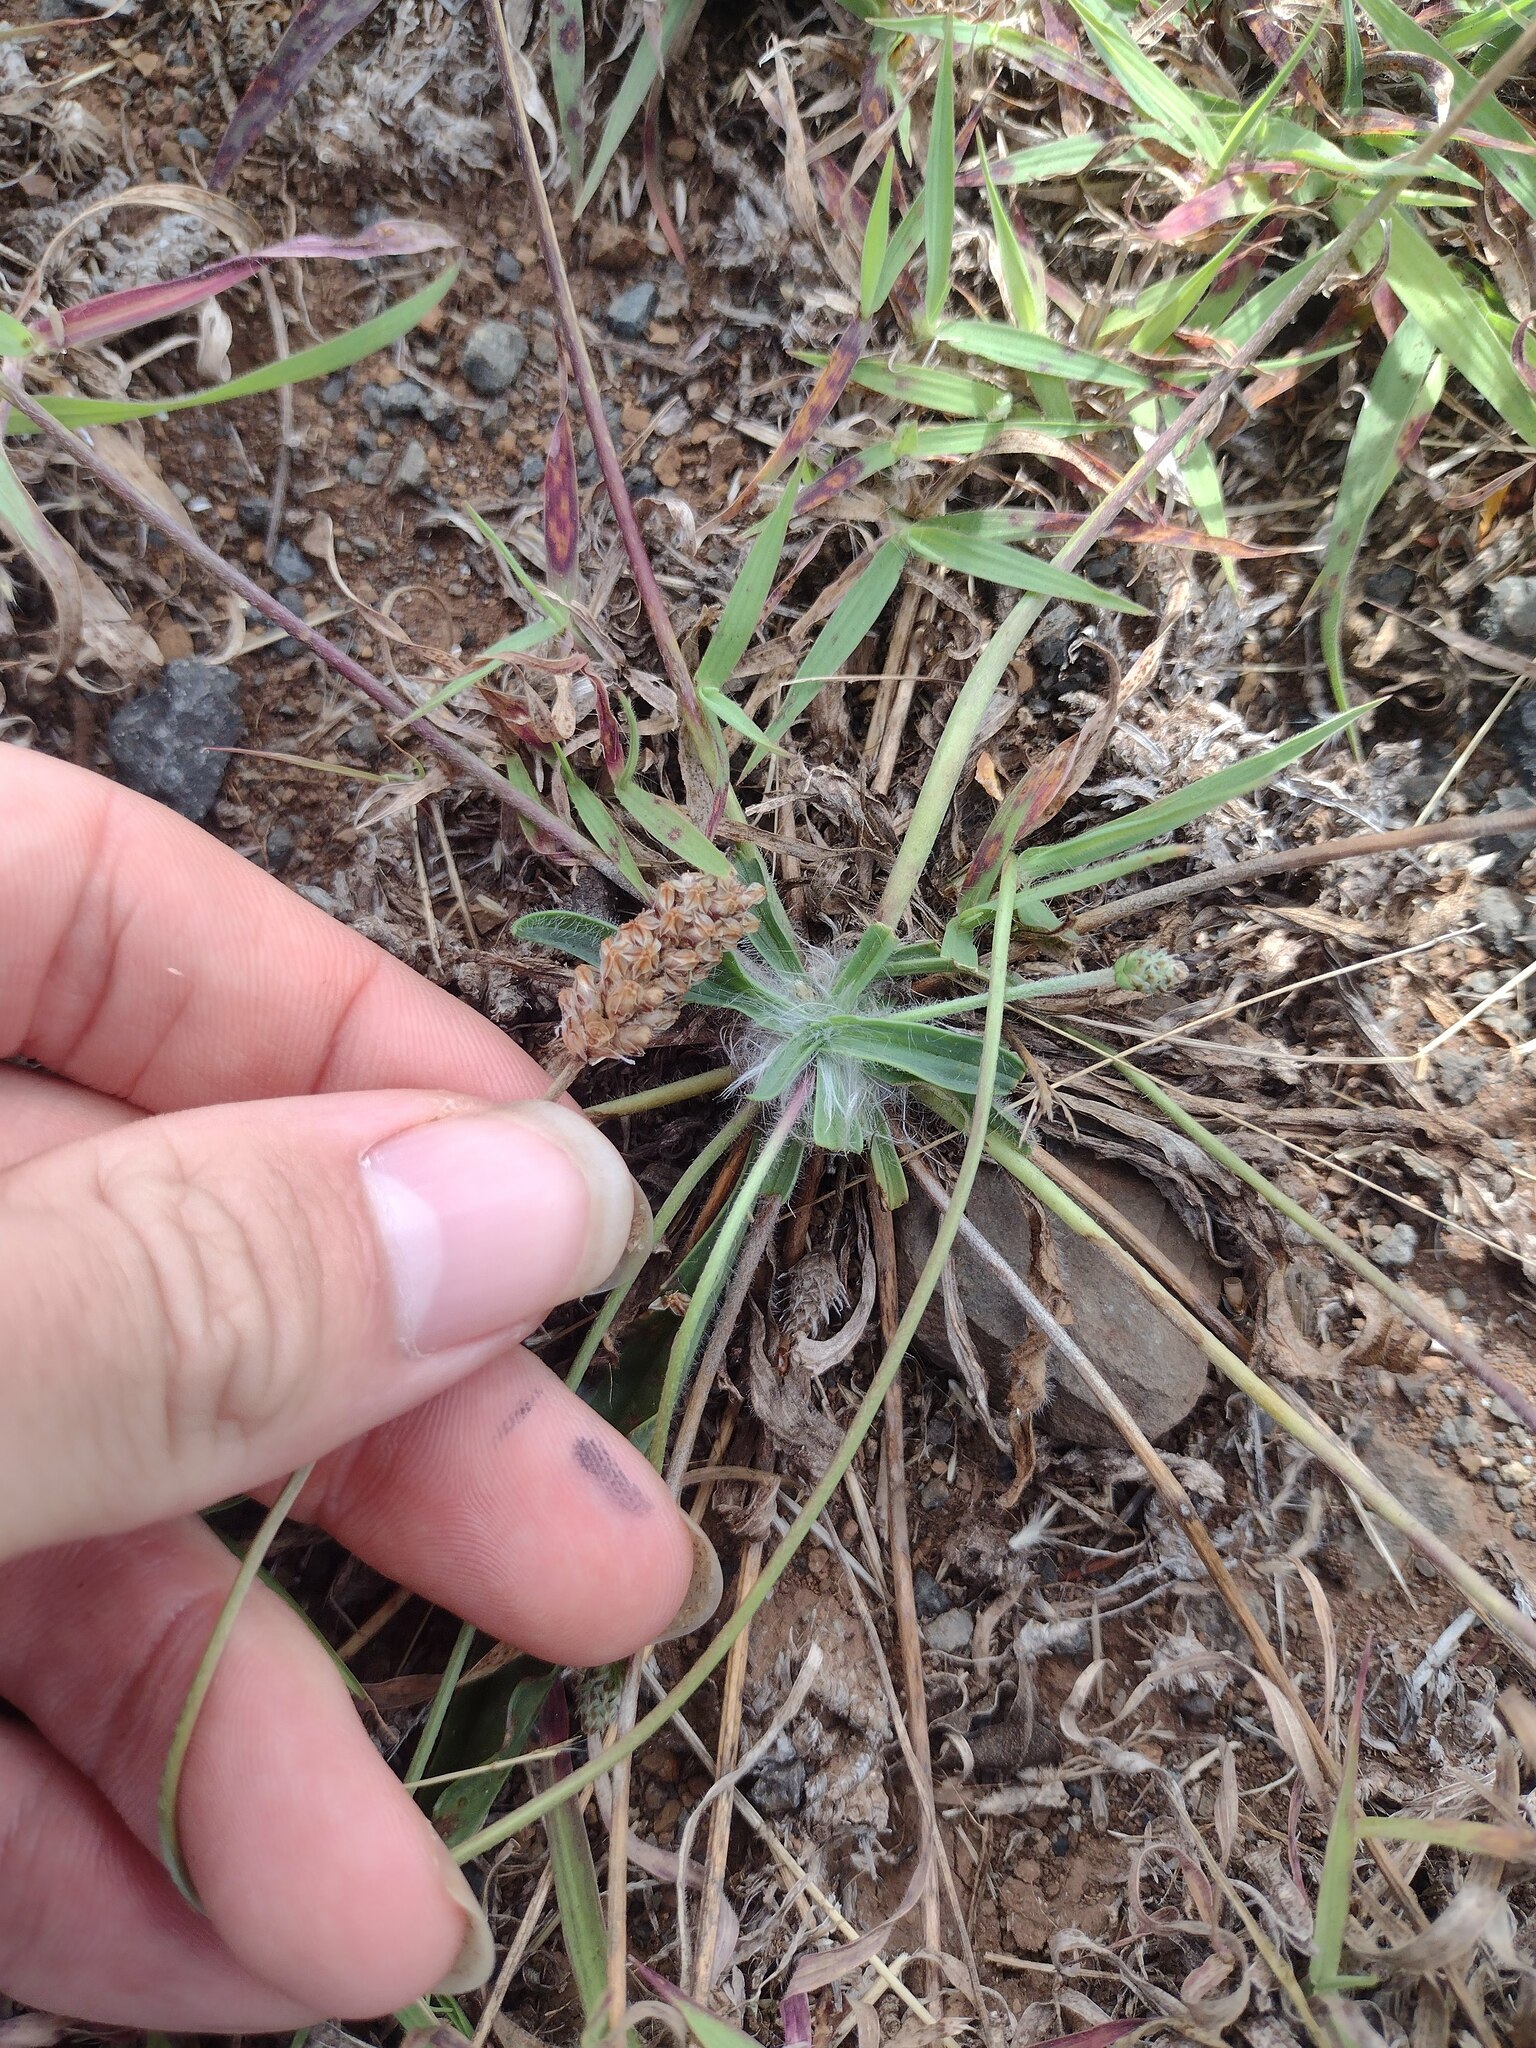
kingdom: Plantae
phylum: Tracheophyta
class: Magnoliopsida
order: Lamiales
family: Plantaginaceae
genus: Plantago
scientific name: Plantago lanceolata
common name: Ribwort plantain
